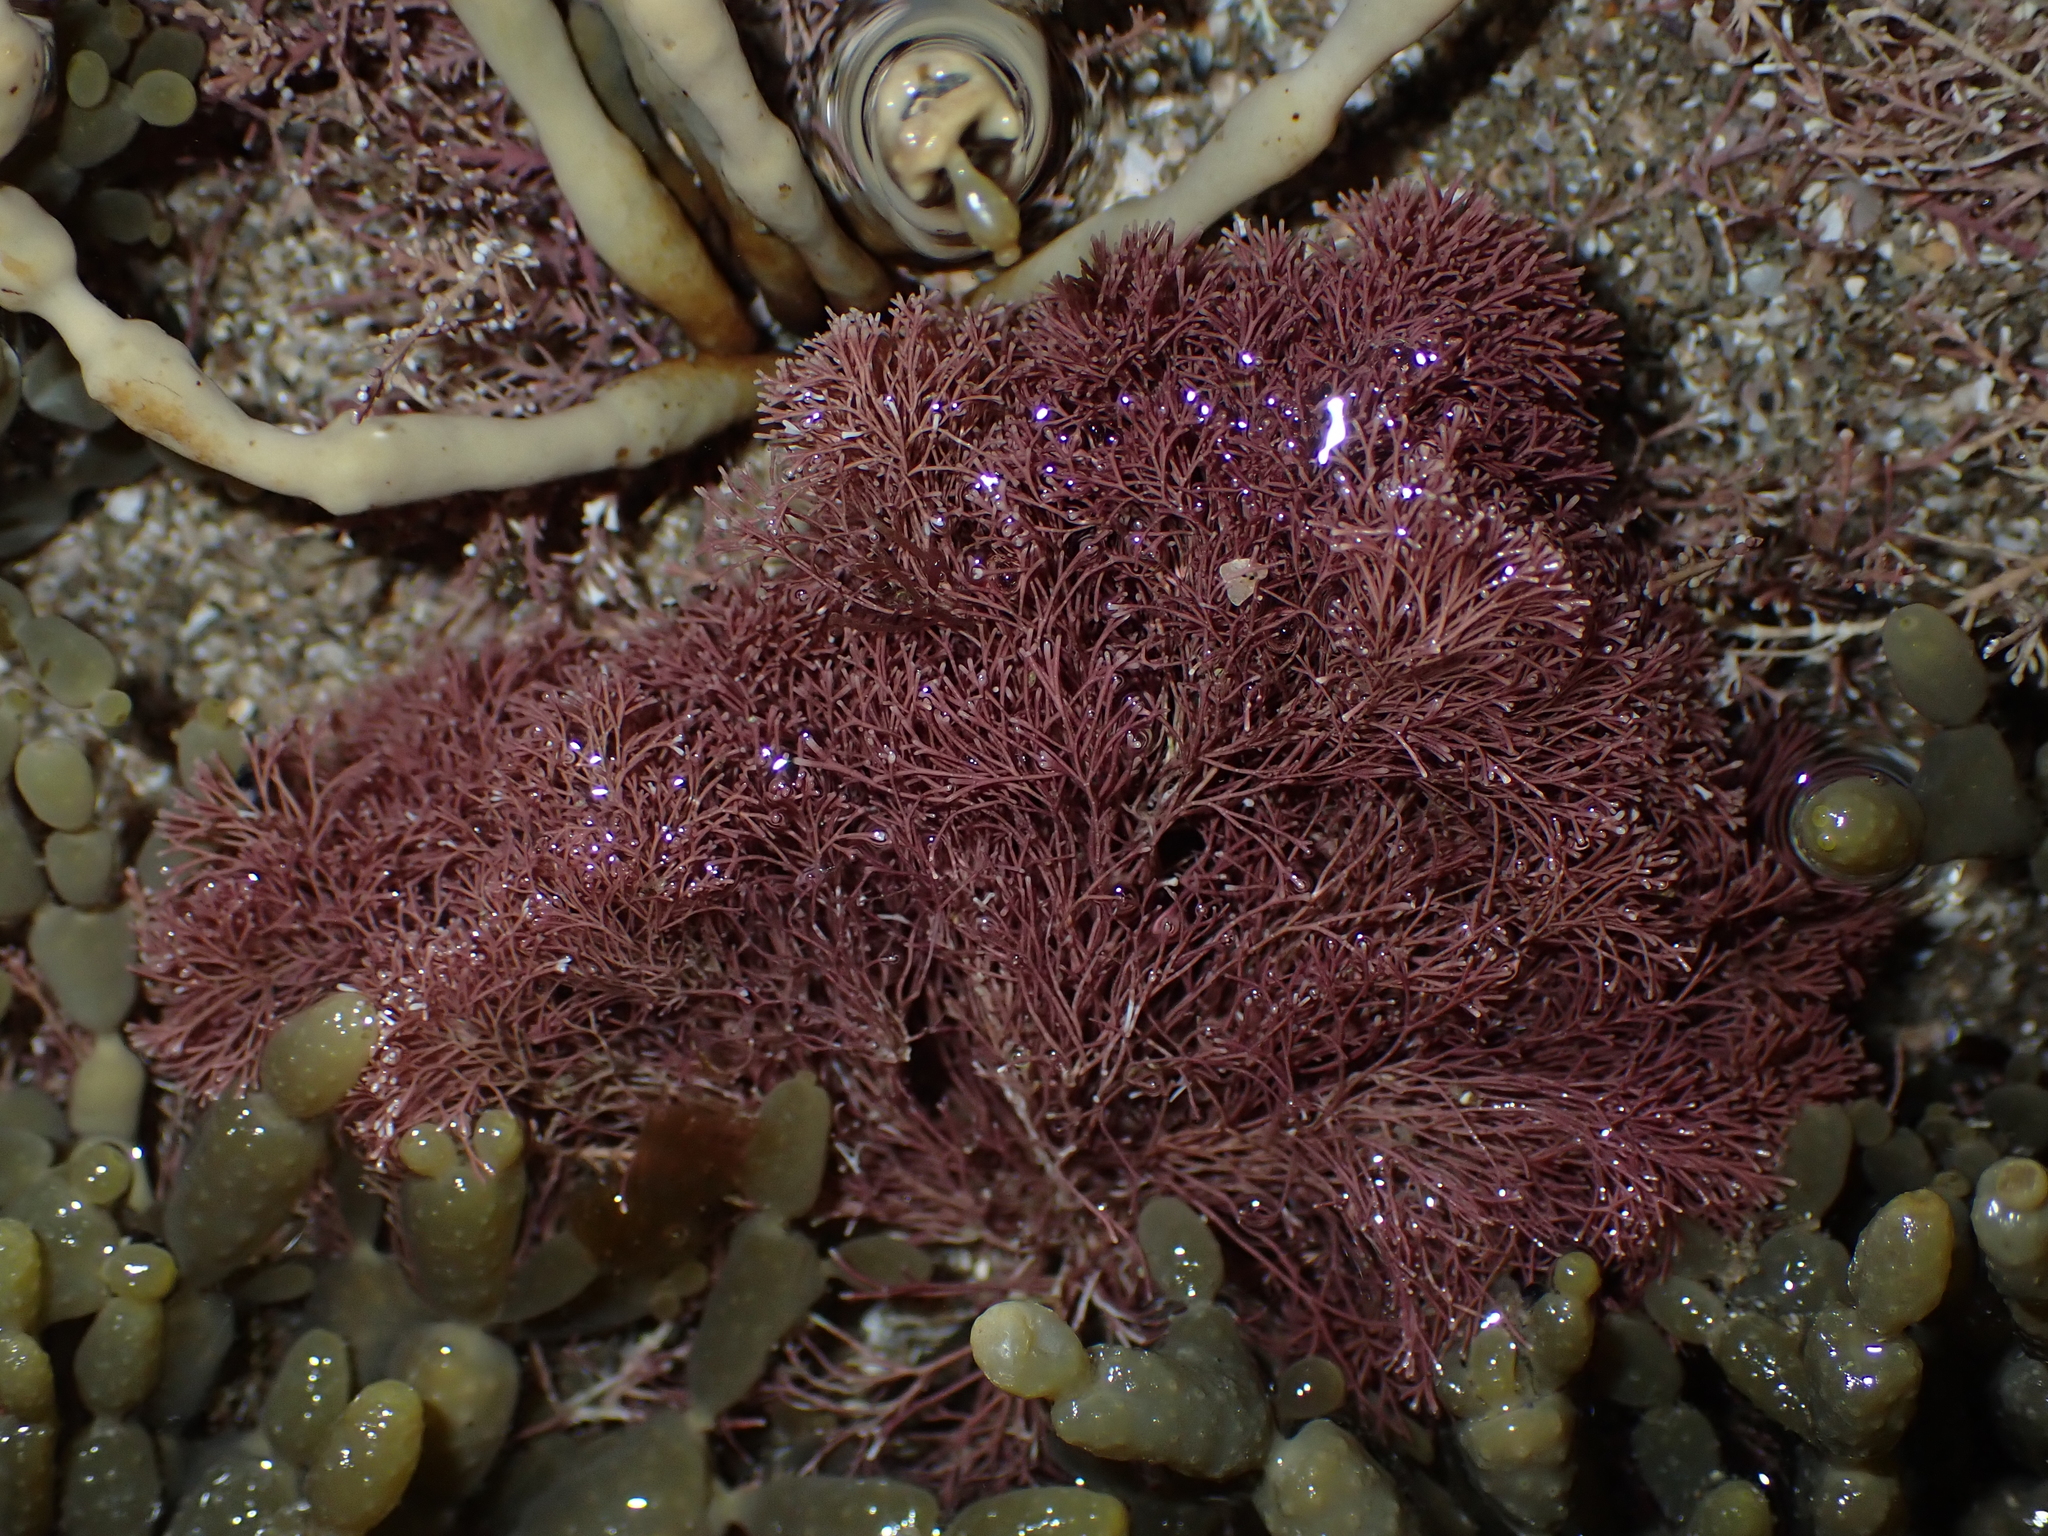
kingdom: Plantae
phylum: Rhodophyta
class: Florideophyceae
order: Corallinales
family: Corallinaceae
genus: Jania
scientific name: Jania
